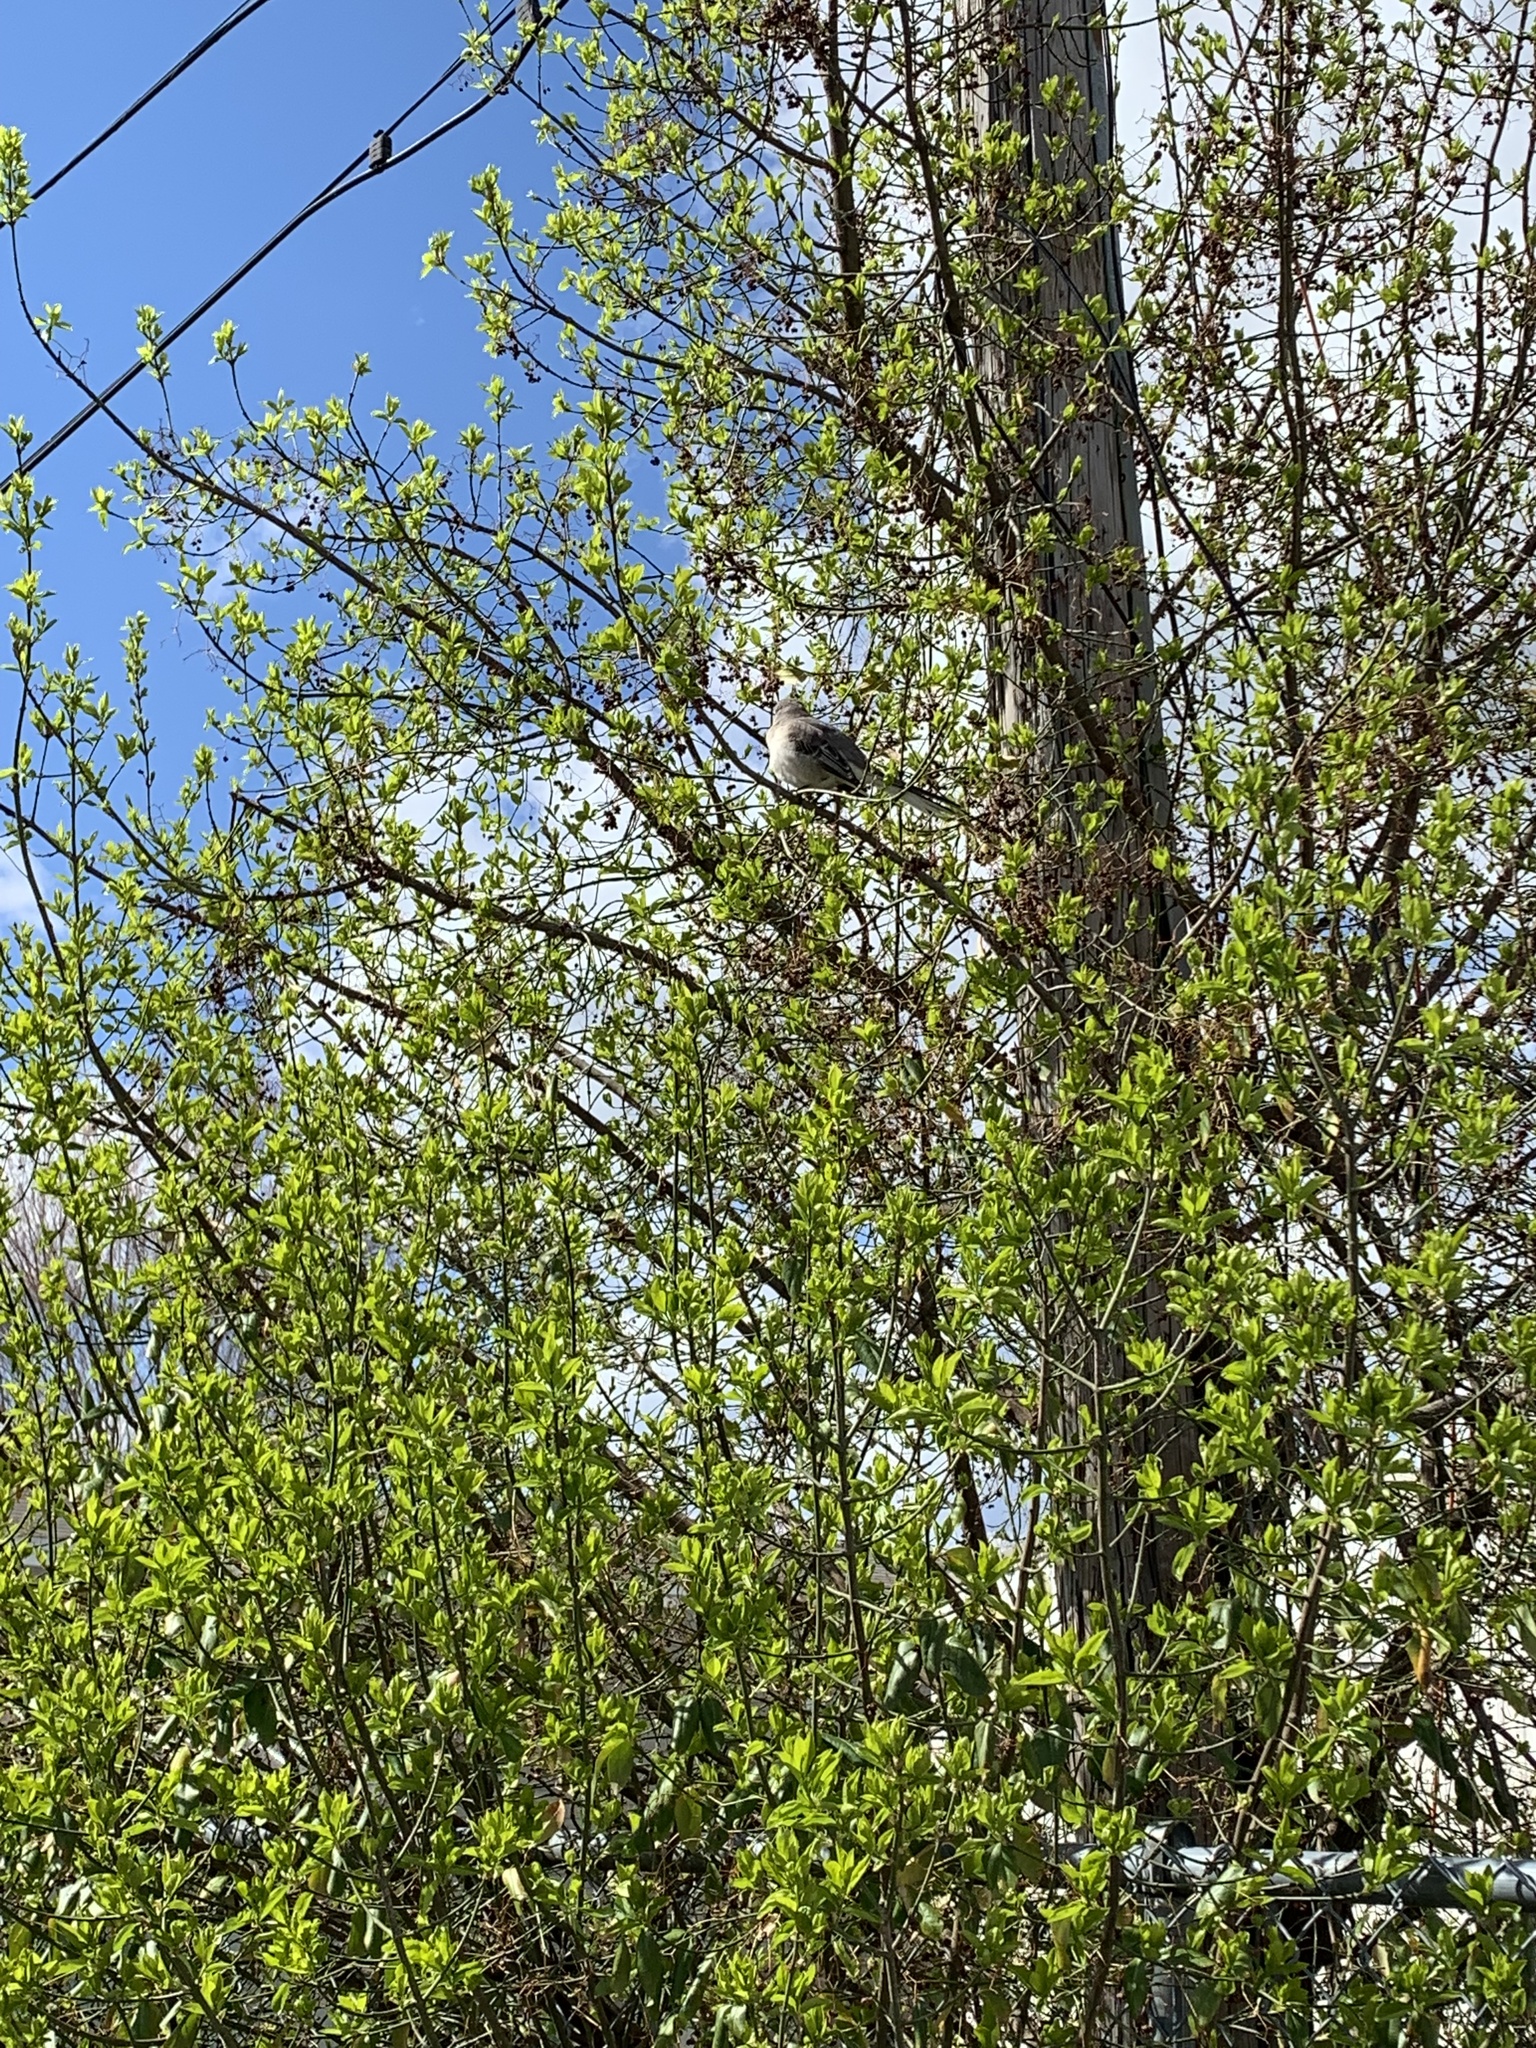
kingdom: Animalia
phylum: Chordata
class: Aves
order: Passeriformes
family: Mimidae
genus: Mimus
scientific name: Mimus polyglottos
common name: Northern mockingbird
